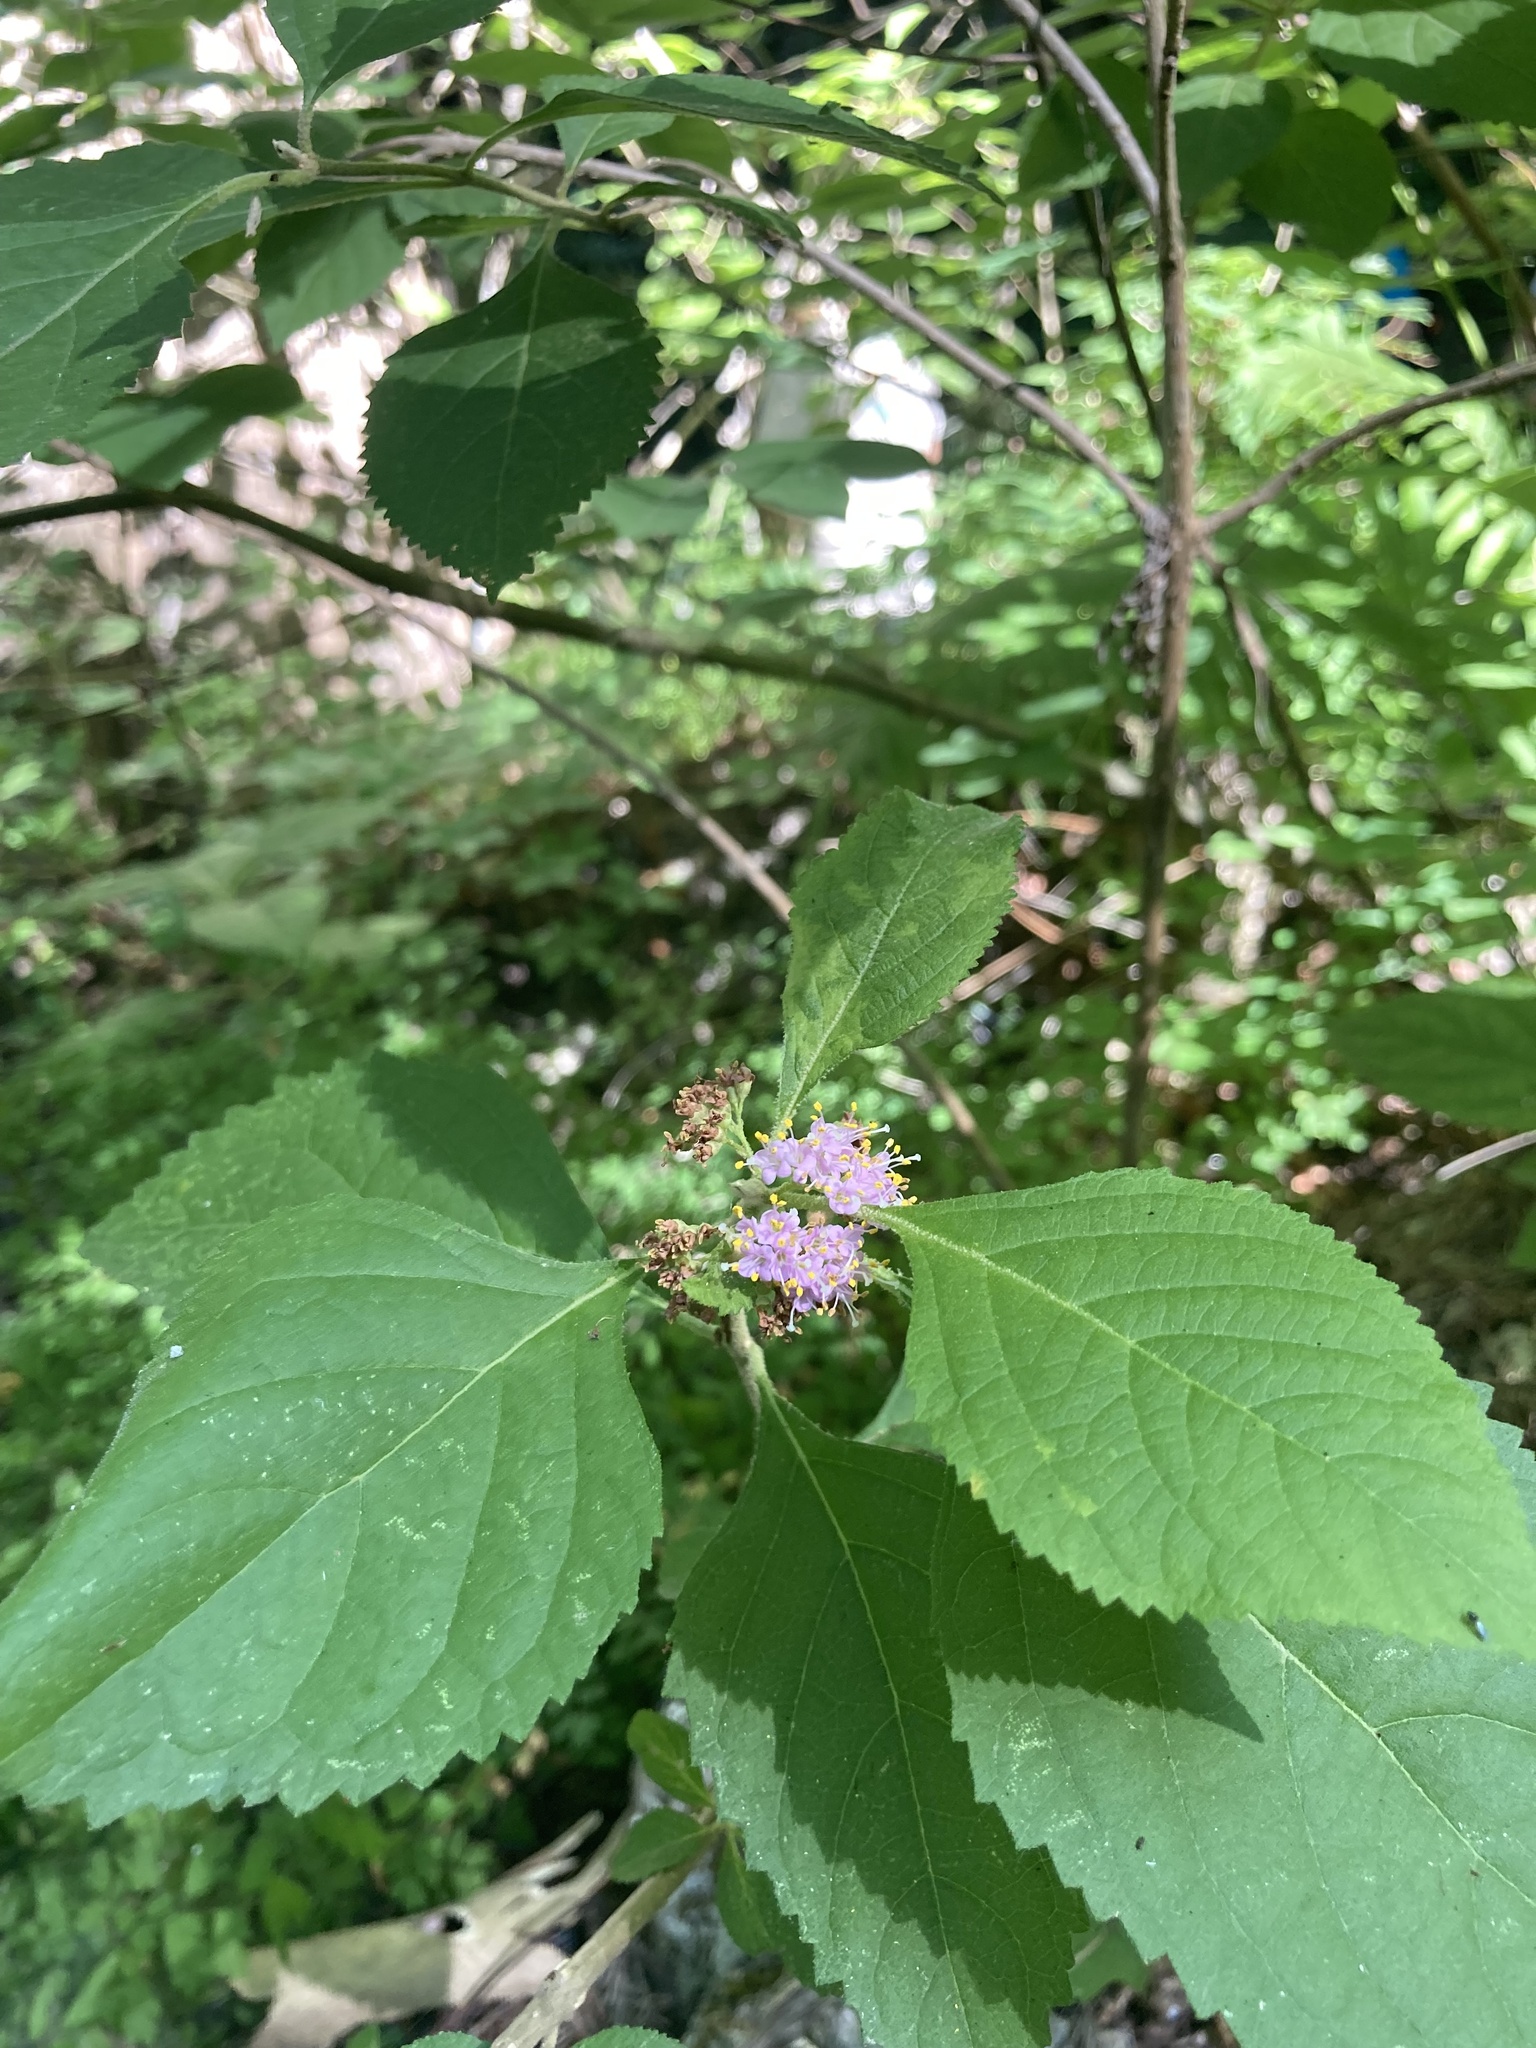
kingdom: Plantae
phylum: Tracheophyta
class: Magnoliopsida
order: Lamiales
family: Lamiaceae
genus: Callicarpa
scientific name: Callicarpa americana
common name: American beautyberry
